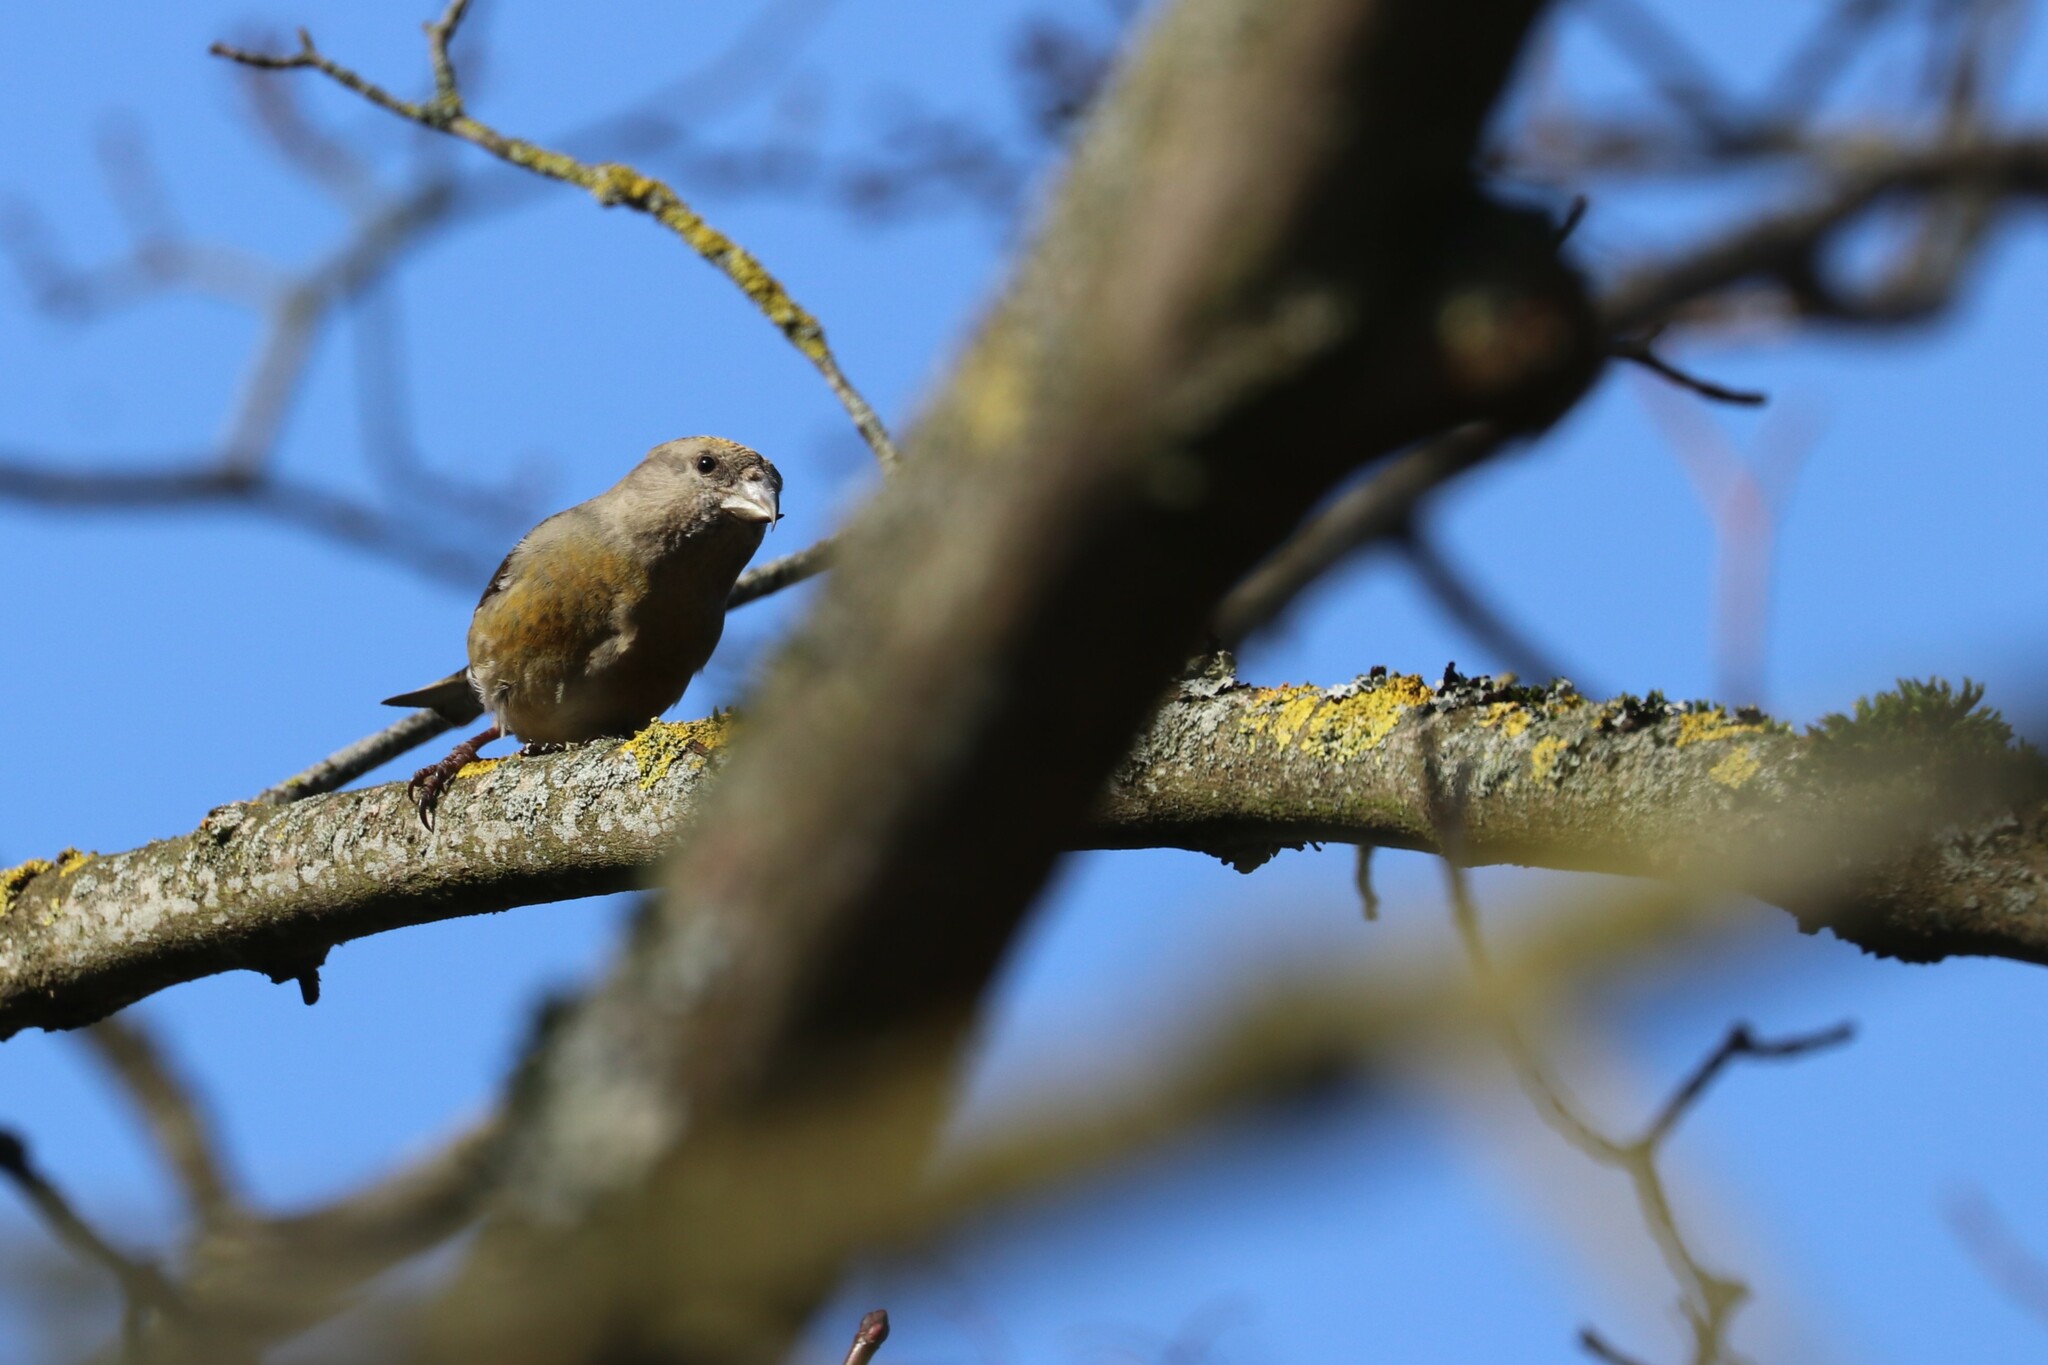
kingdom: Animalia
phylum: Chordata
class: Aves
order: Passeriformes
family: Fringillidae
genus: Loxia
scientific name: Loxia curvirostra
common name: Red crossbill
